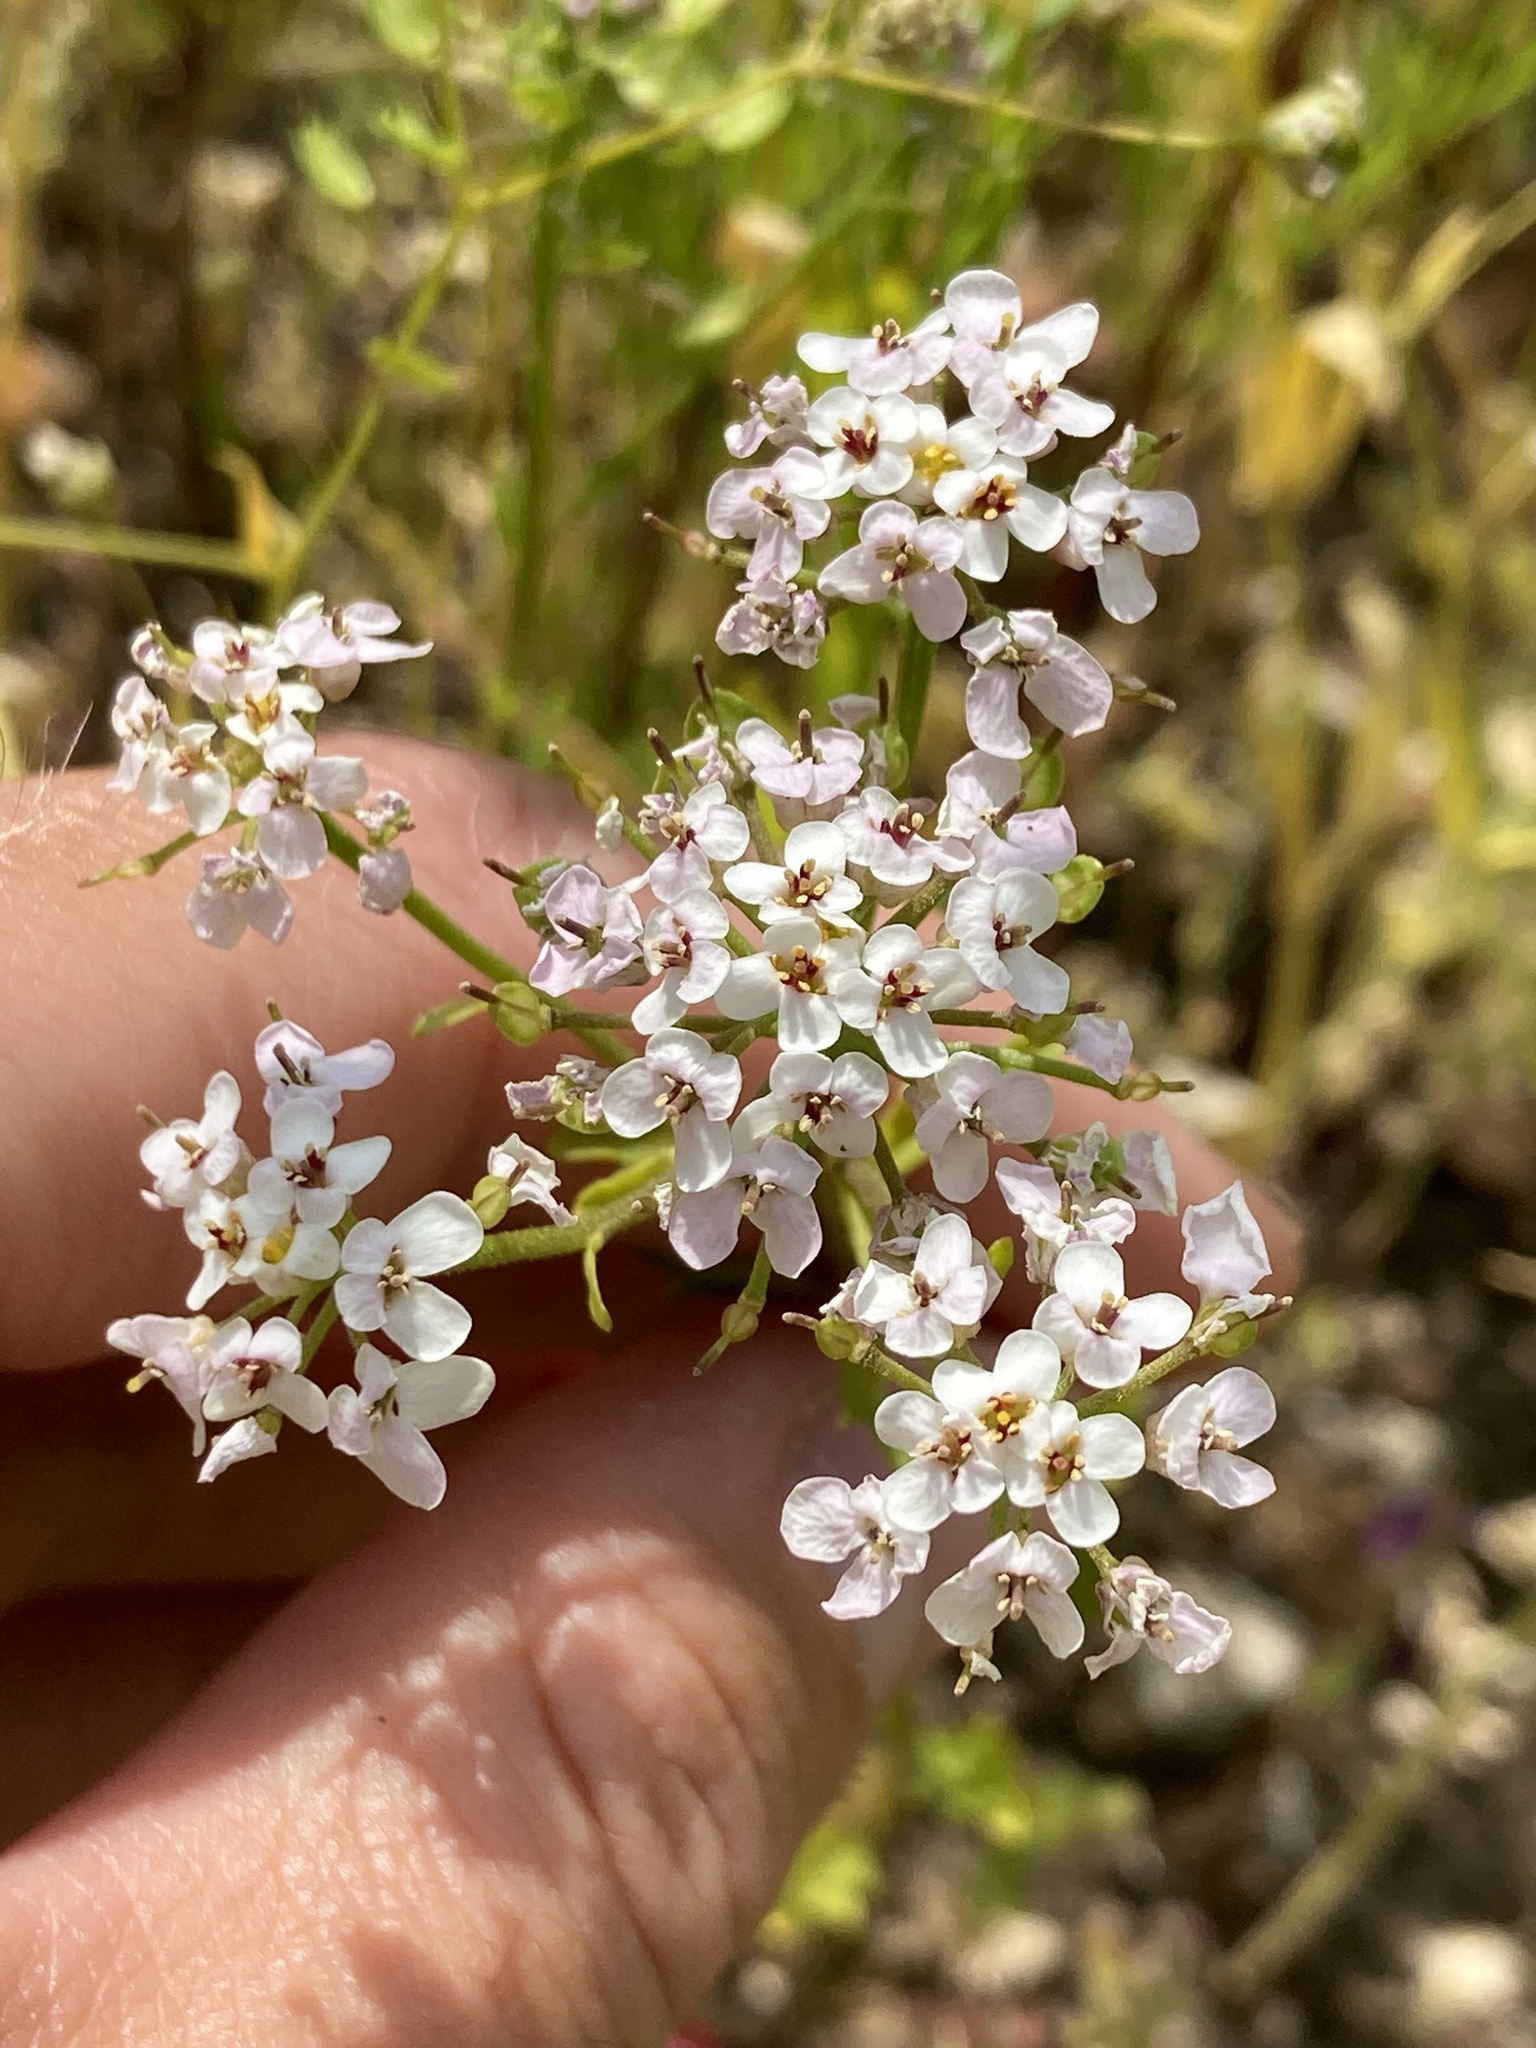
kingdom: Plantae
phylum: Tracheophyta
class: Magnoliopsida
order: Brassicales
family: Brassicaceae
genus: Lobularia
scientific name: Lobularia maritima
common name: Sweet alison
